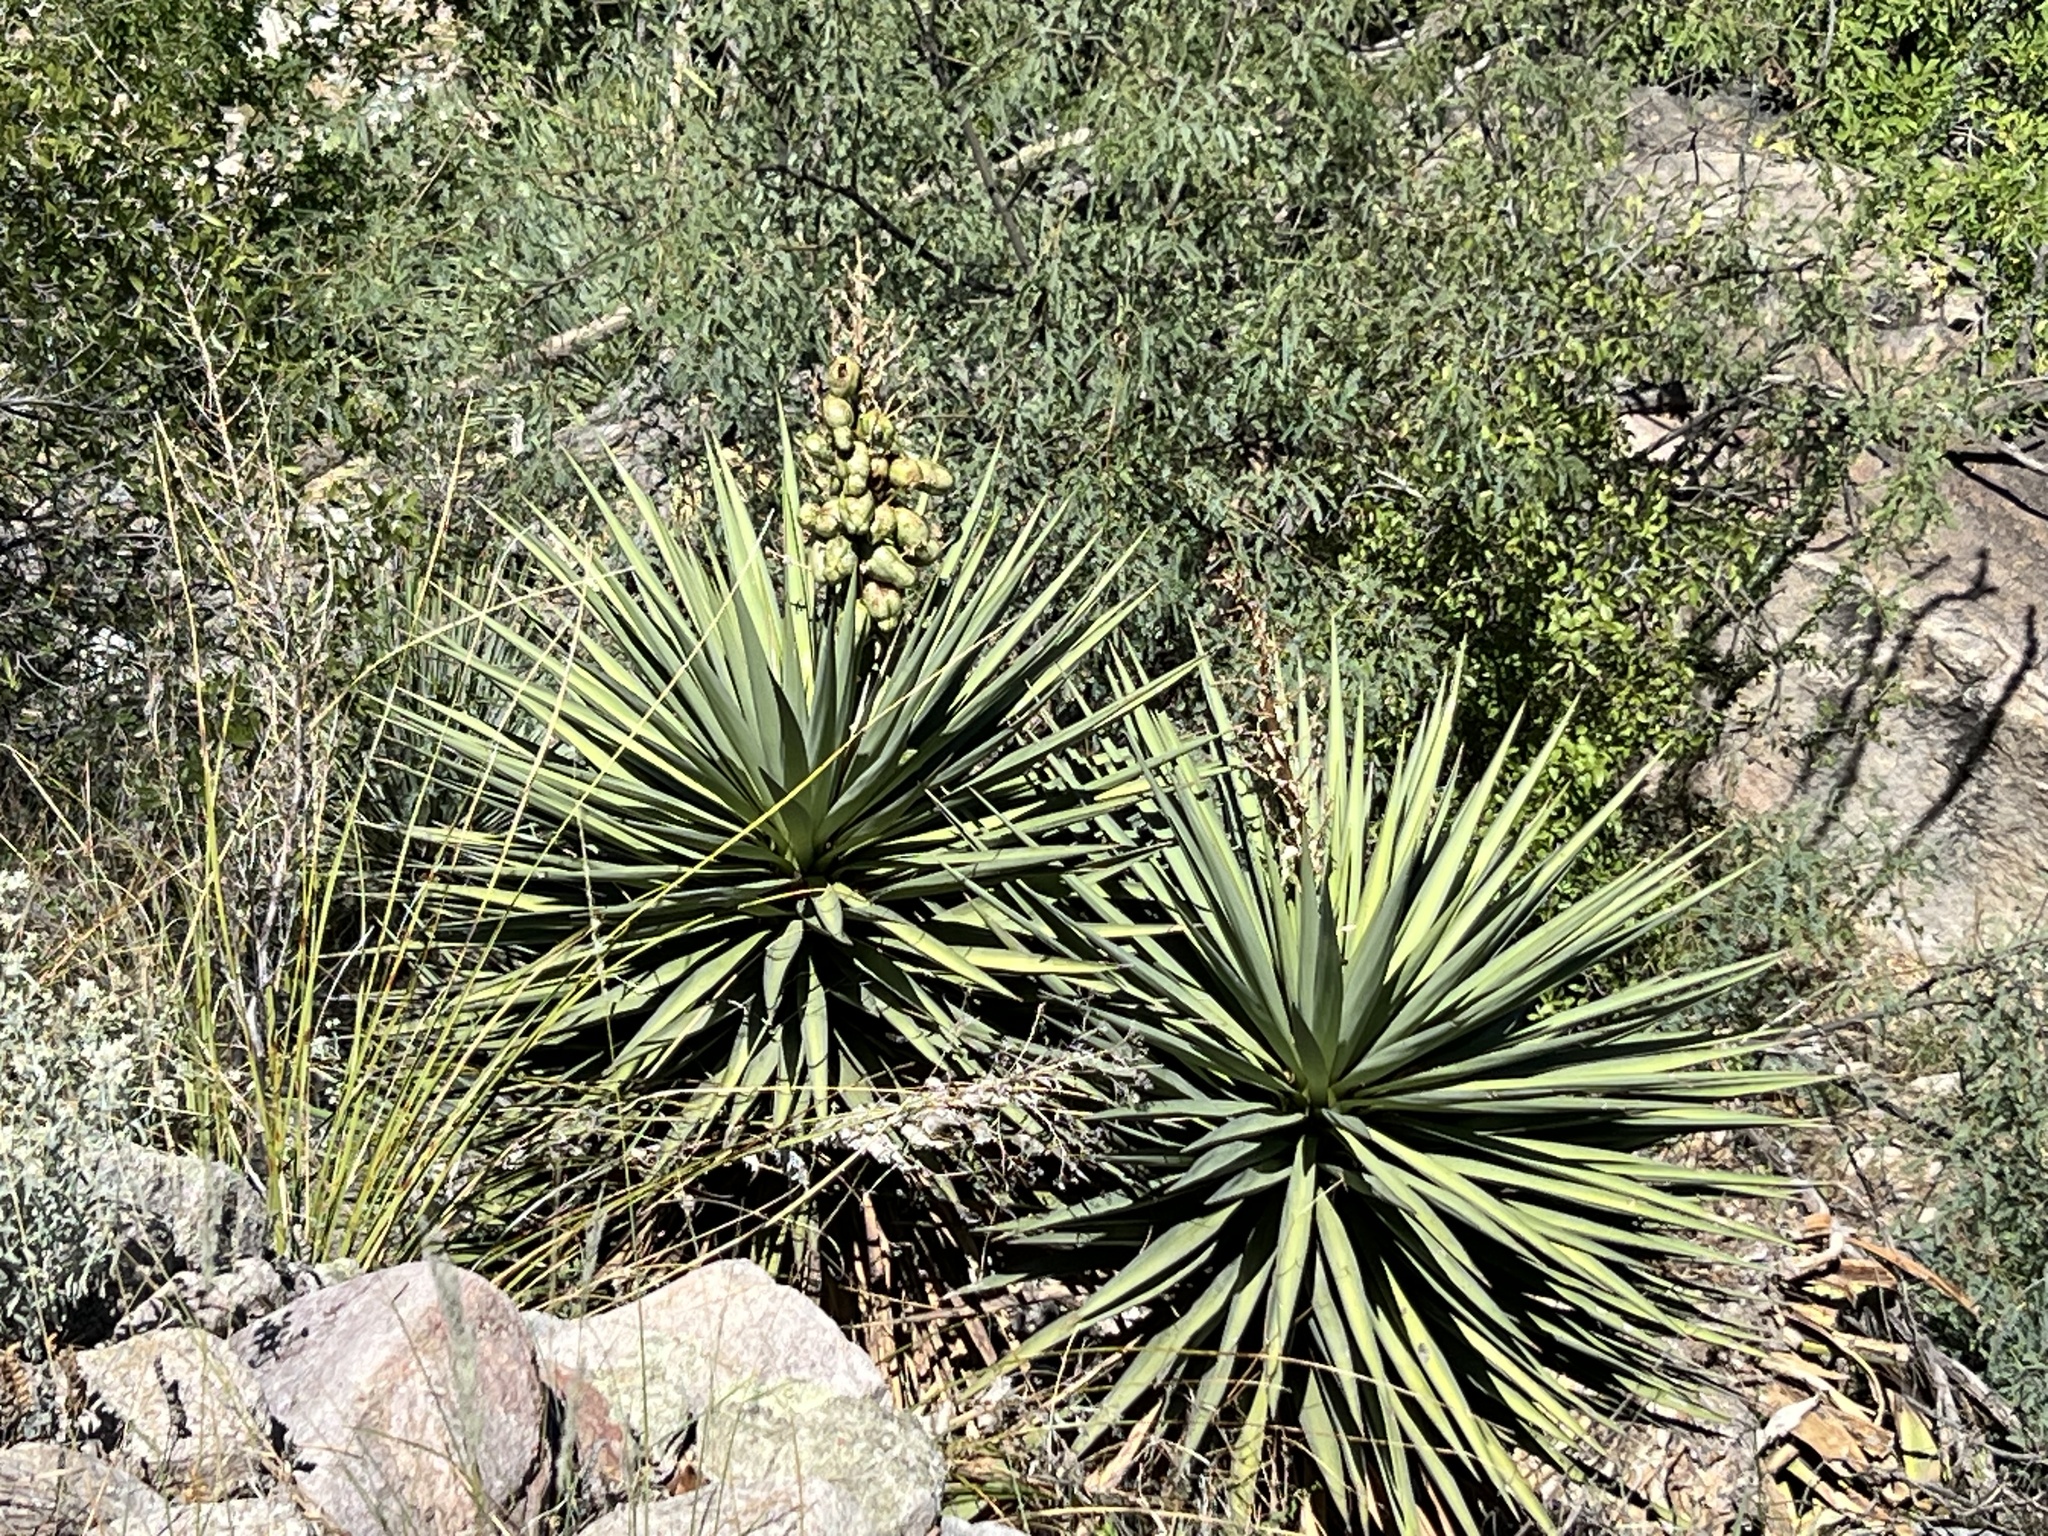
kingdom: Plantae
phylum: Tracheophyta
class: Liliopsida
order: Asparagales
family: Asparagaceae
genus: Yucca
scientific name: Yucca schottii
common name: Hoary yucca
